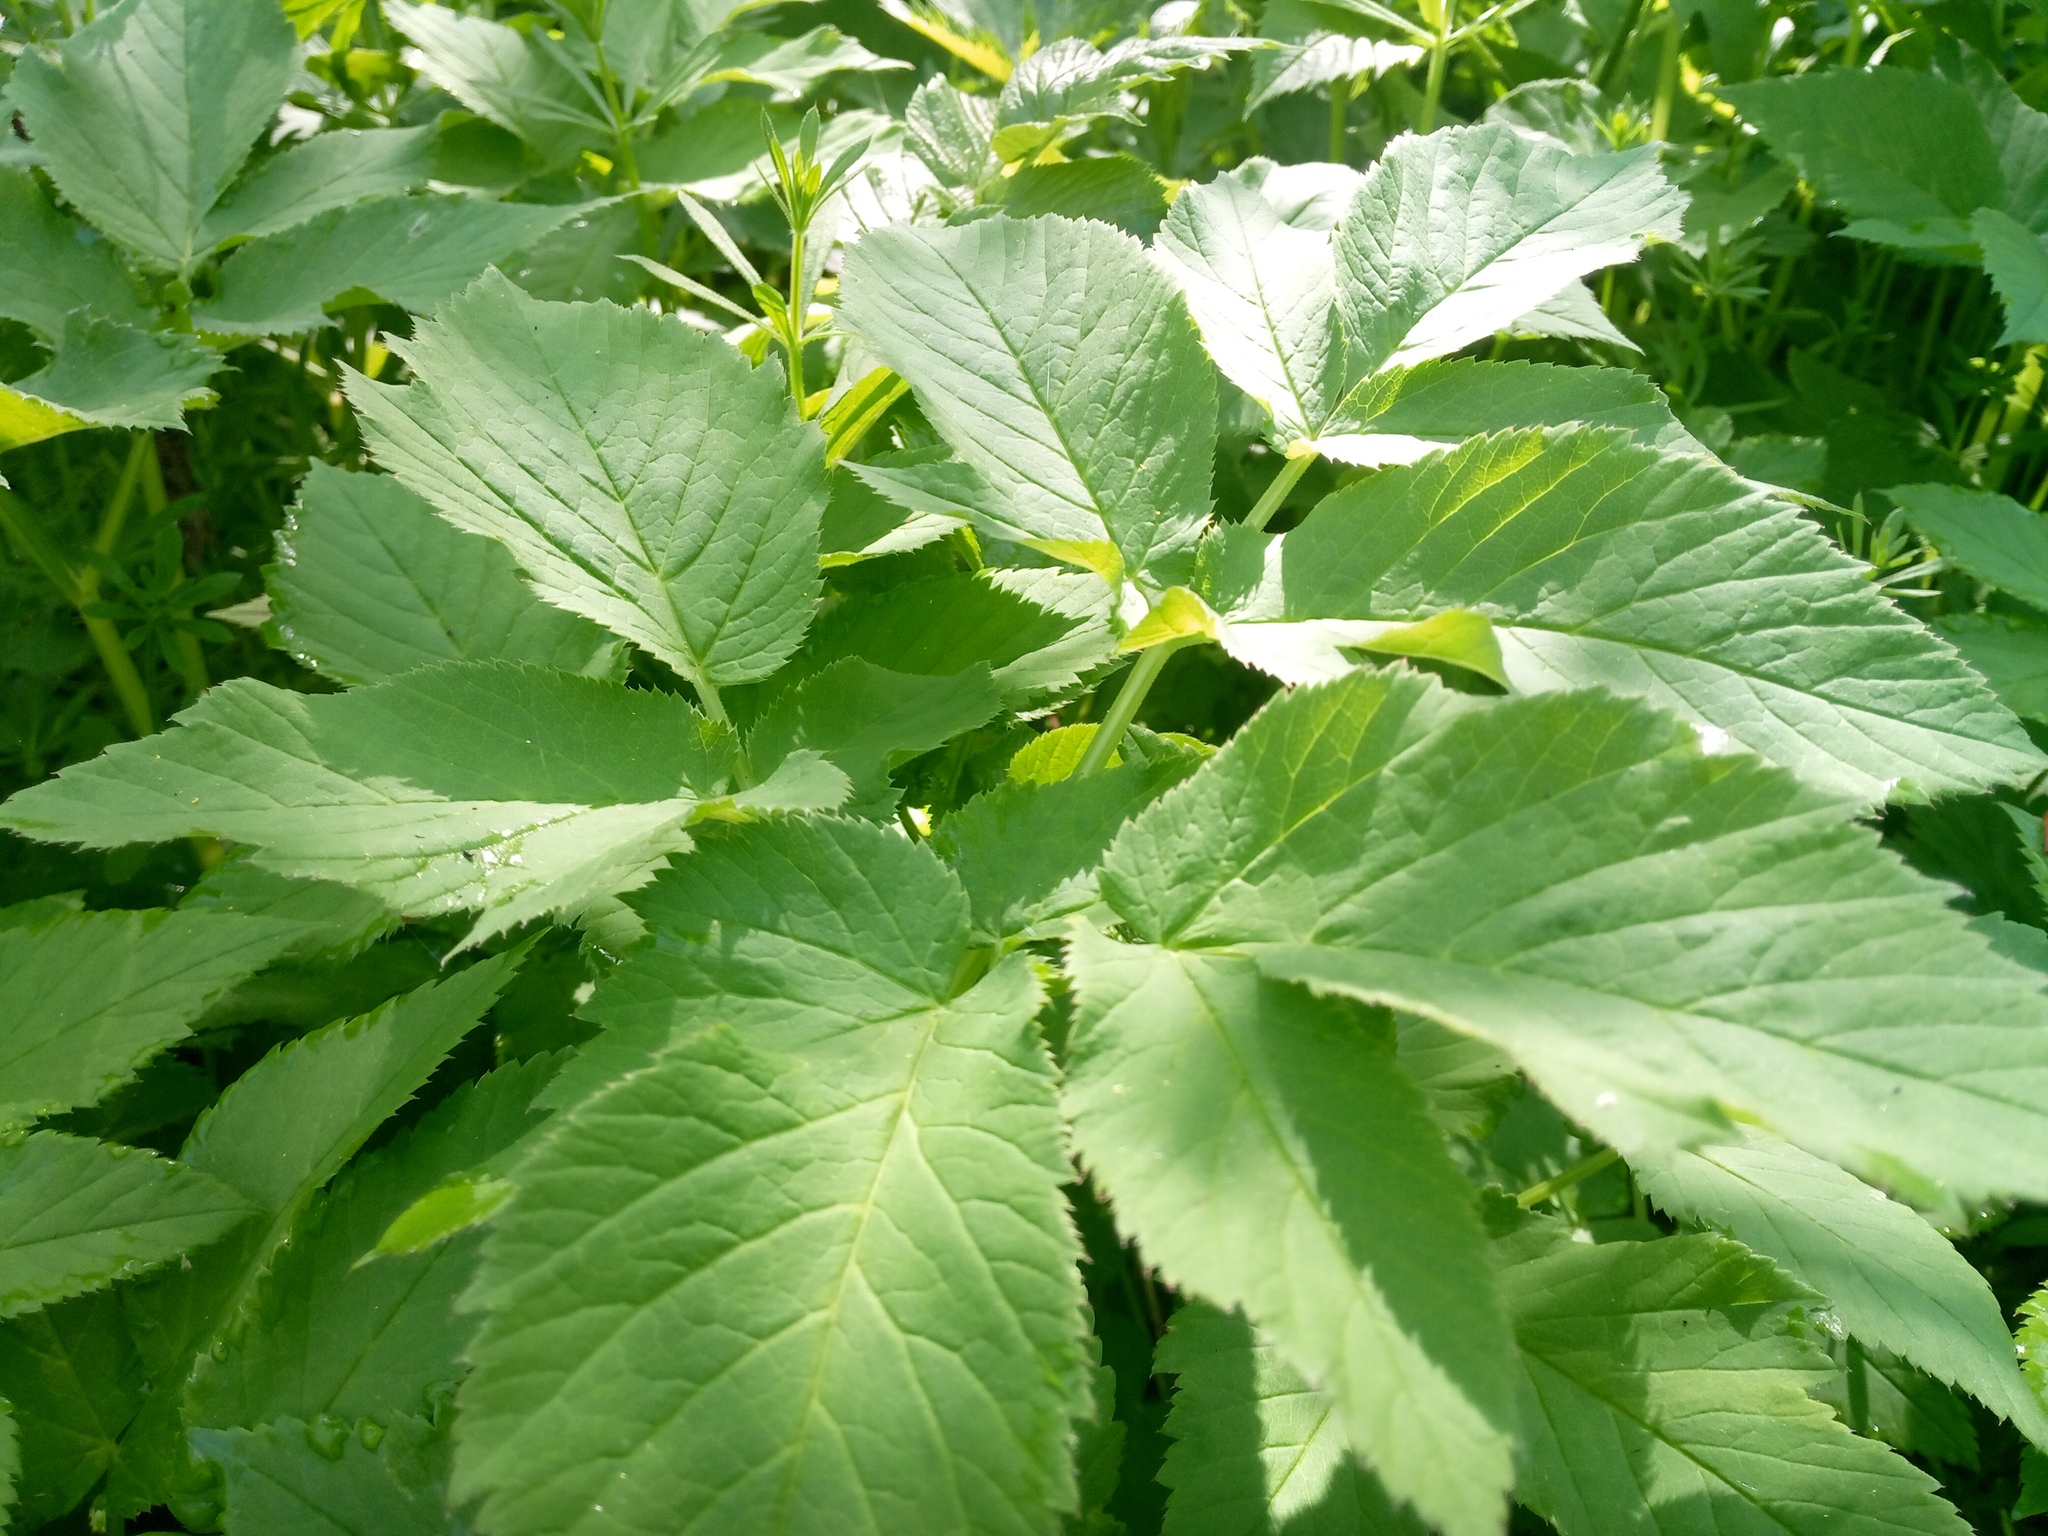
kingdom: Plantae
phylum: Tracheophyta
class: Magnoliopsida
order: Apiales
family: Apiaceae
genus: Aegopodium
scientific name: Aegopodium podagraria
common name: Ground-elder
